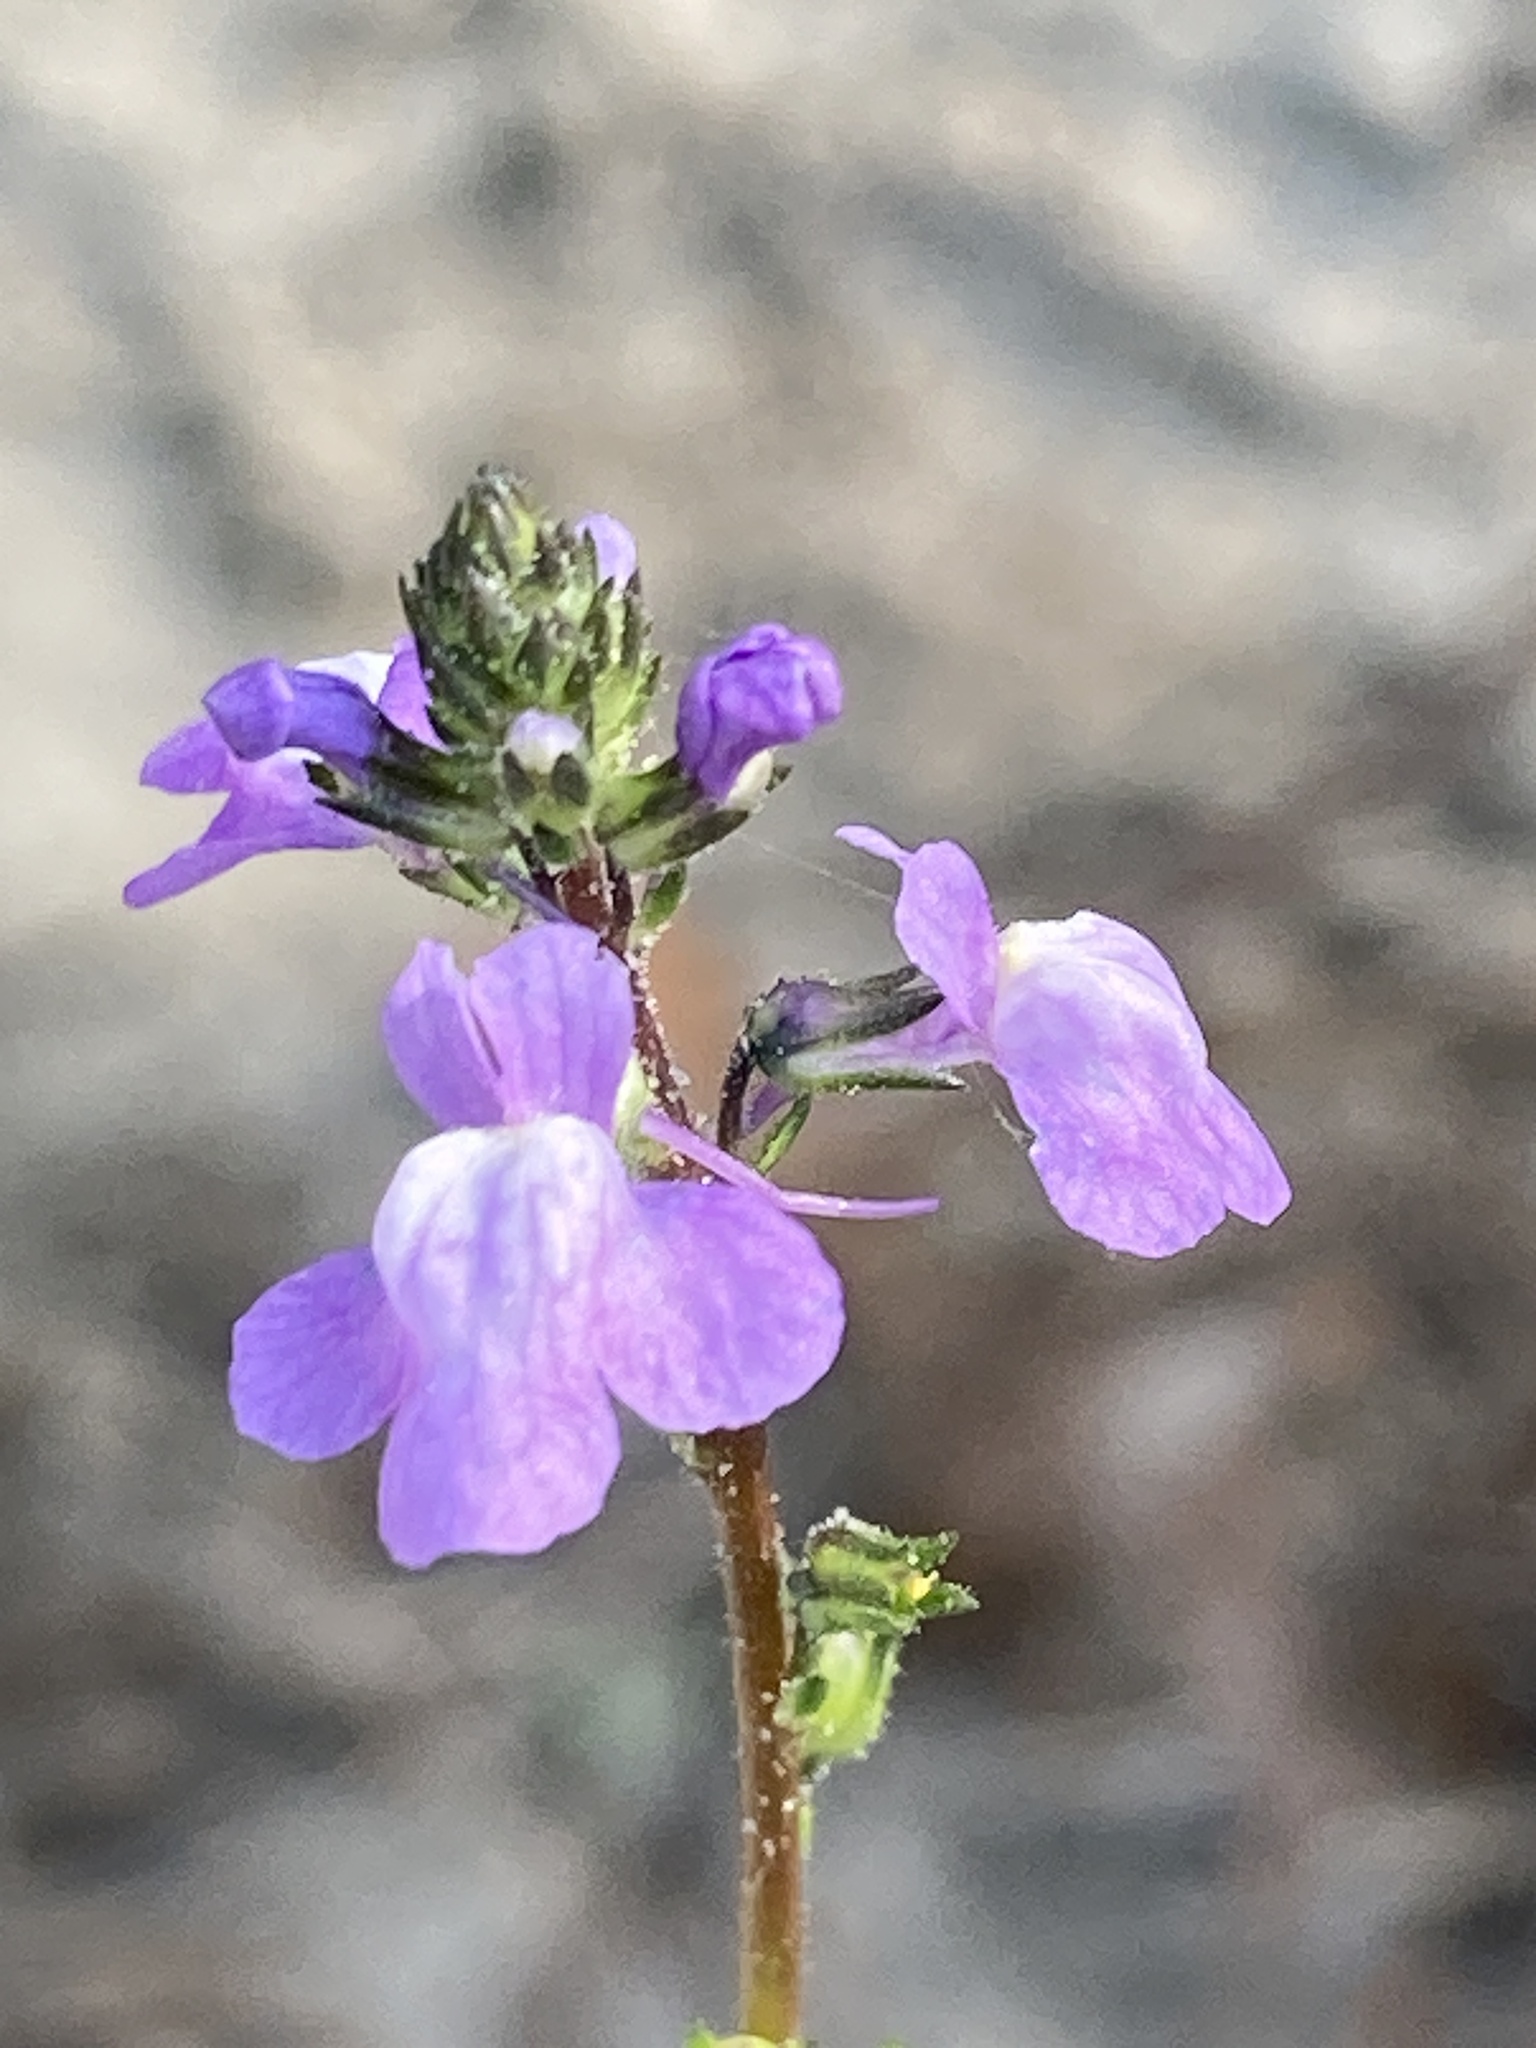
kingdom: Plantae
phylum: Tracheophyta
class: Magnoliopsida
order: Lamiales
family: Plantaginaceae
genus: Nuttallanthus
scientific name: Nuttallanthus canadensis
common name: Blue toadflax
